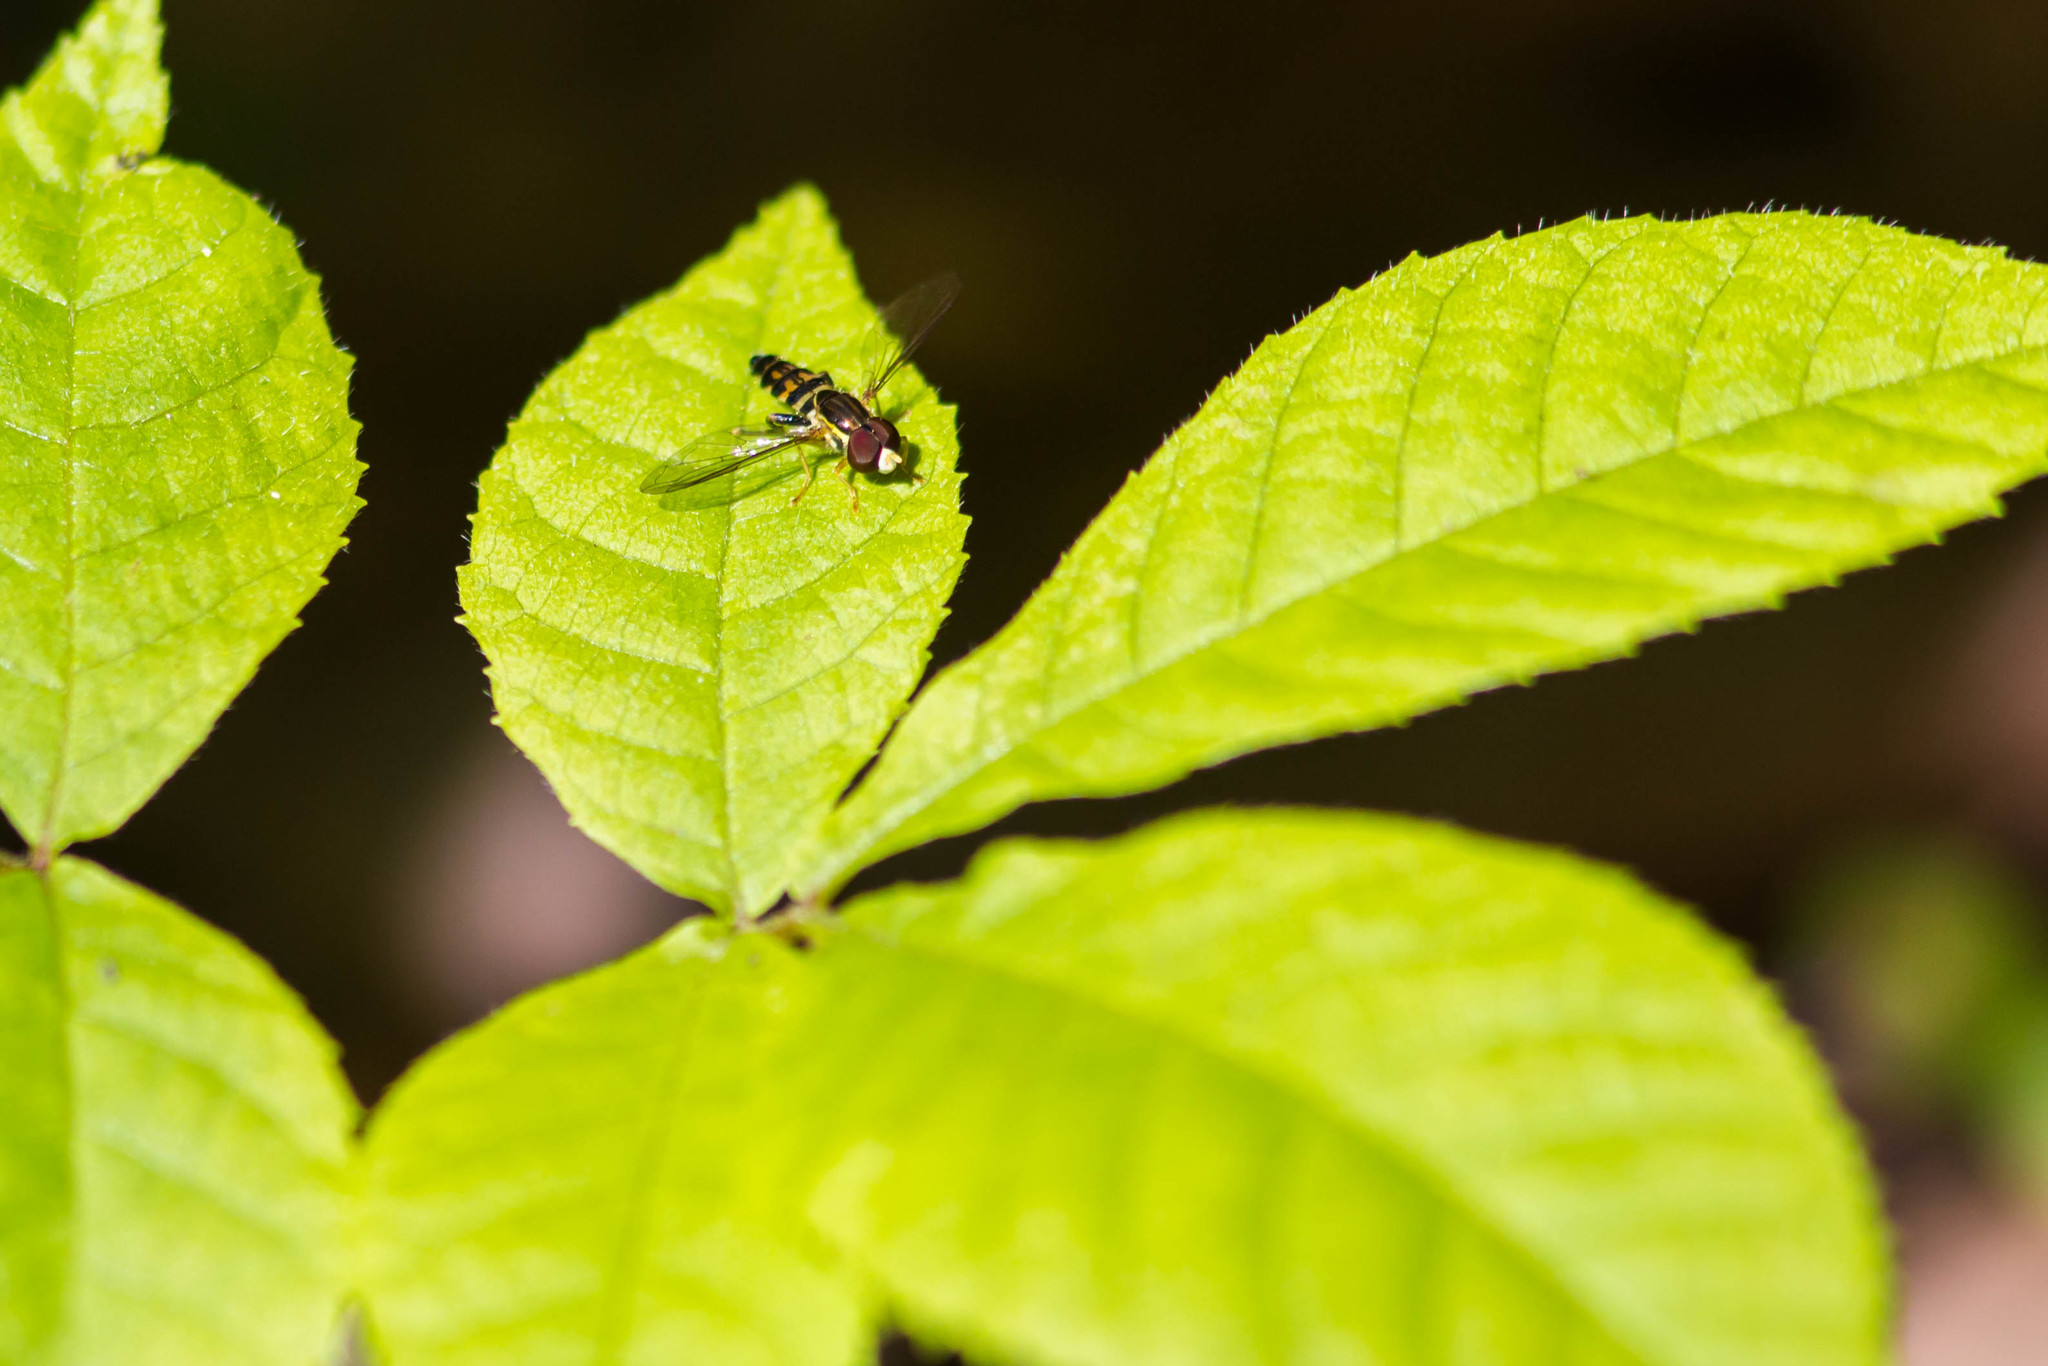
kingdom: Animalia
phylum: Arthropoda
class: Insecta
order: Diptera
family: Syrphidae
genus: Toxomerus
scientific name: Toxomerus geminatus
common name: Eastern calligrapher
